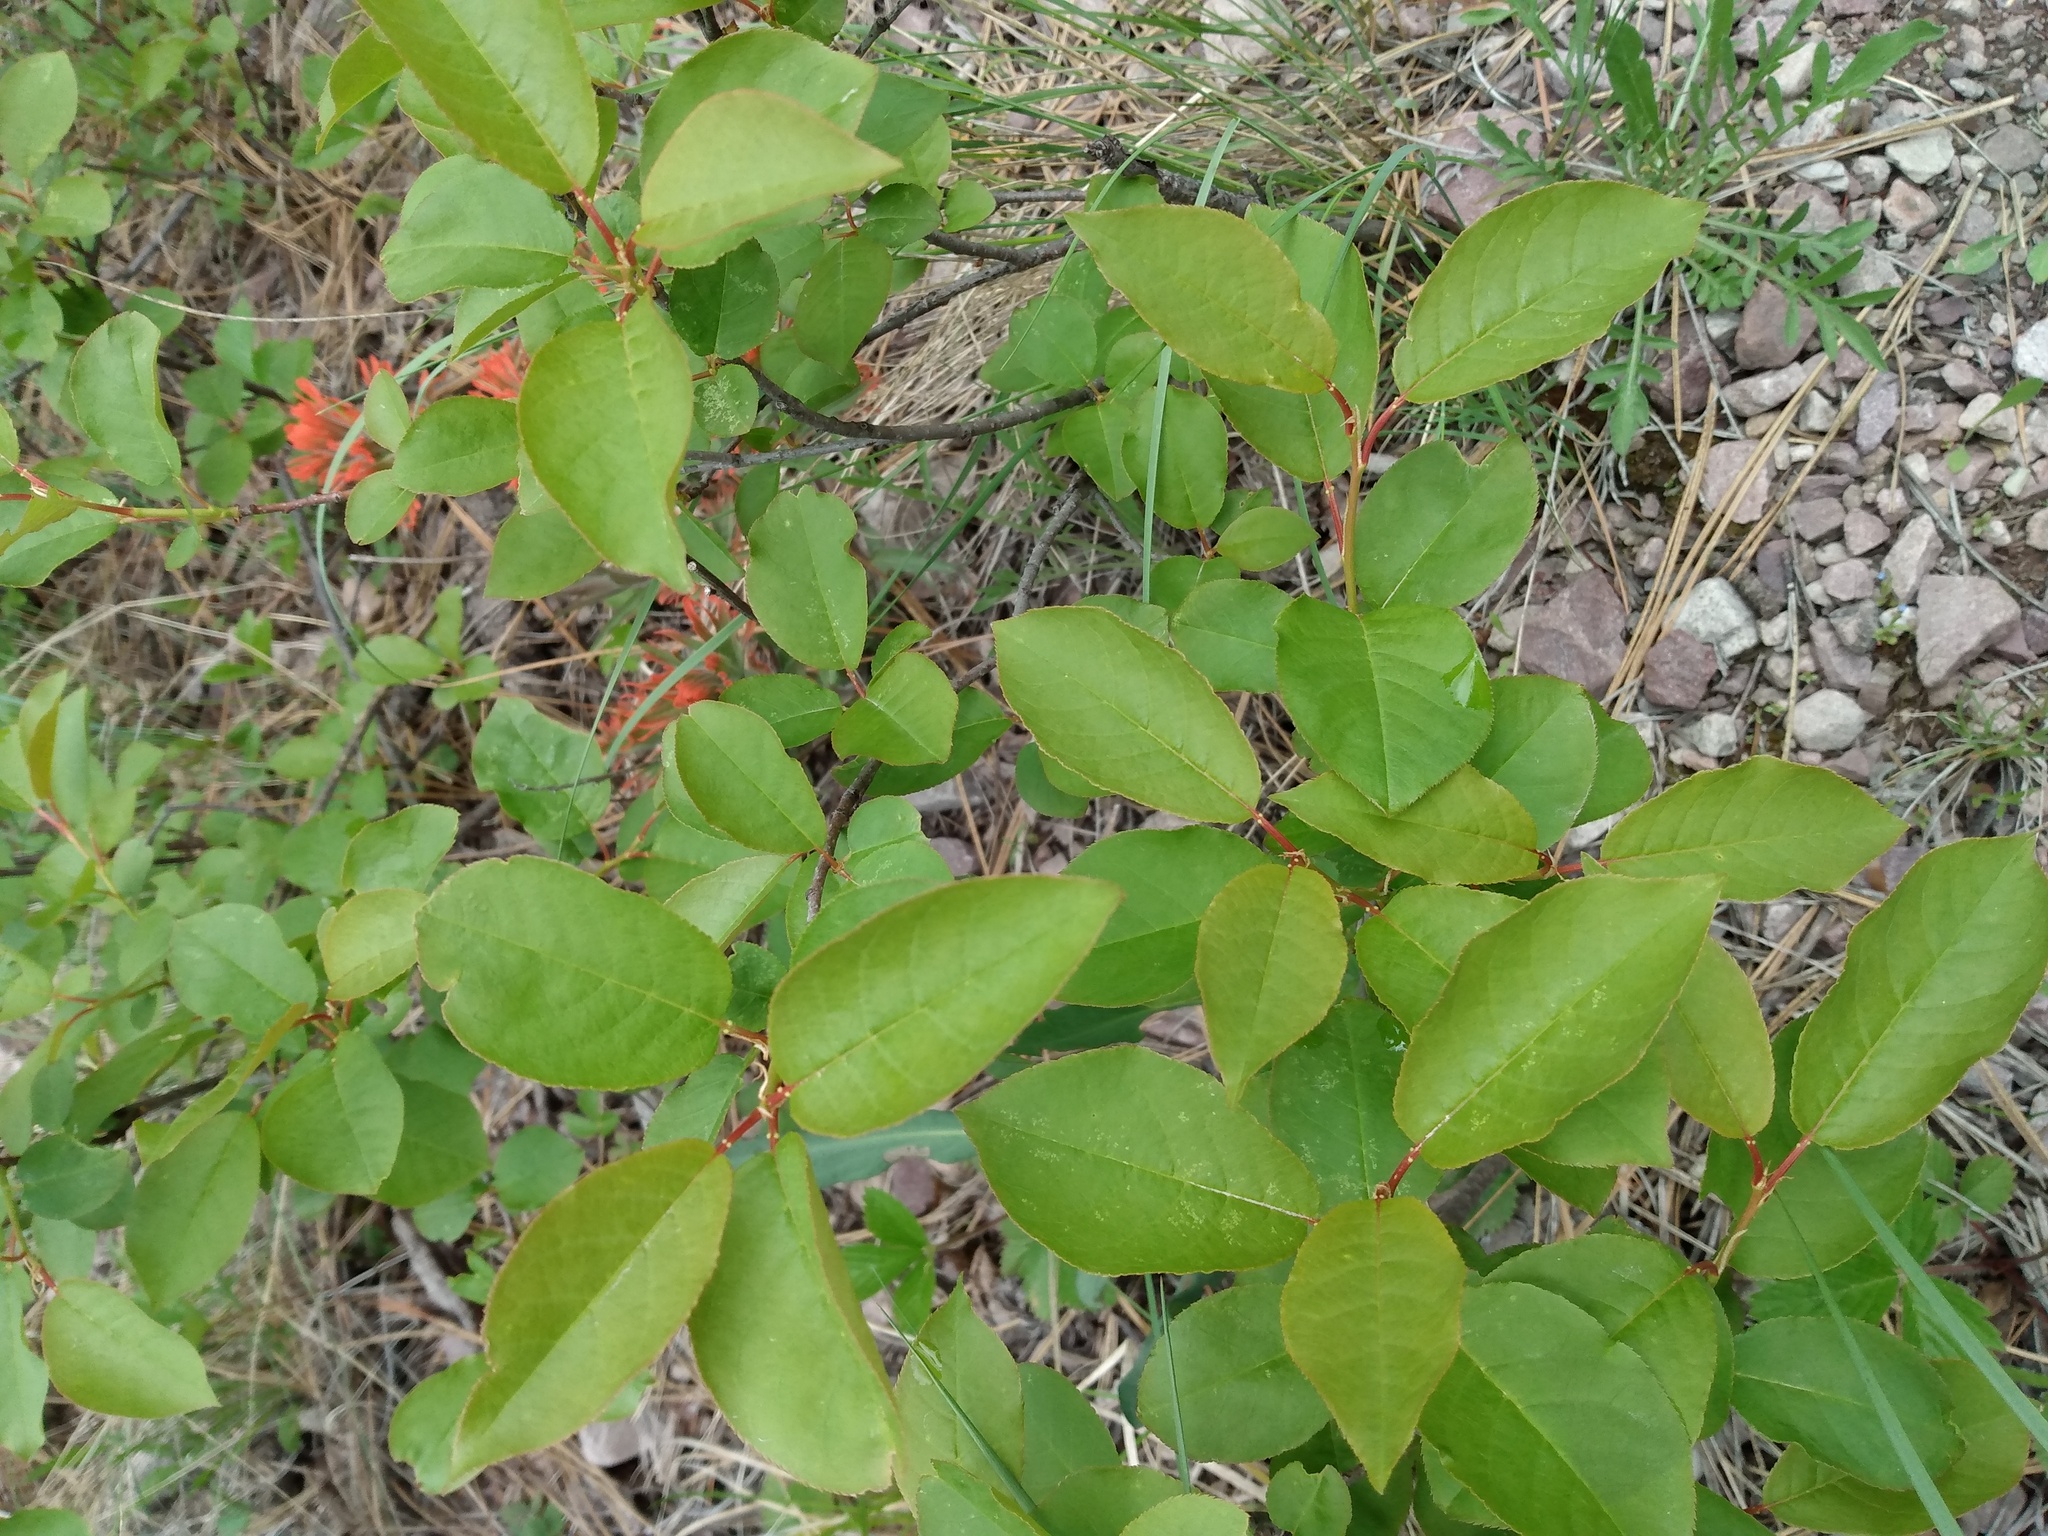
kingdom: Plantae
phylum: Tracheophyta
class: Magnoliopsida
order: Rosales
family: Rosaceae
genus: Prunus
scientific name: Prunus virginiana
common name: Chokecherry
